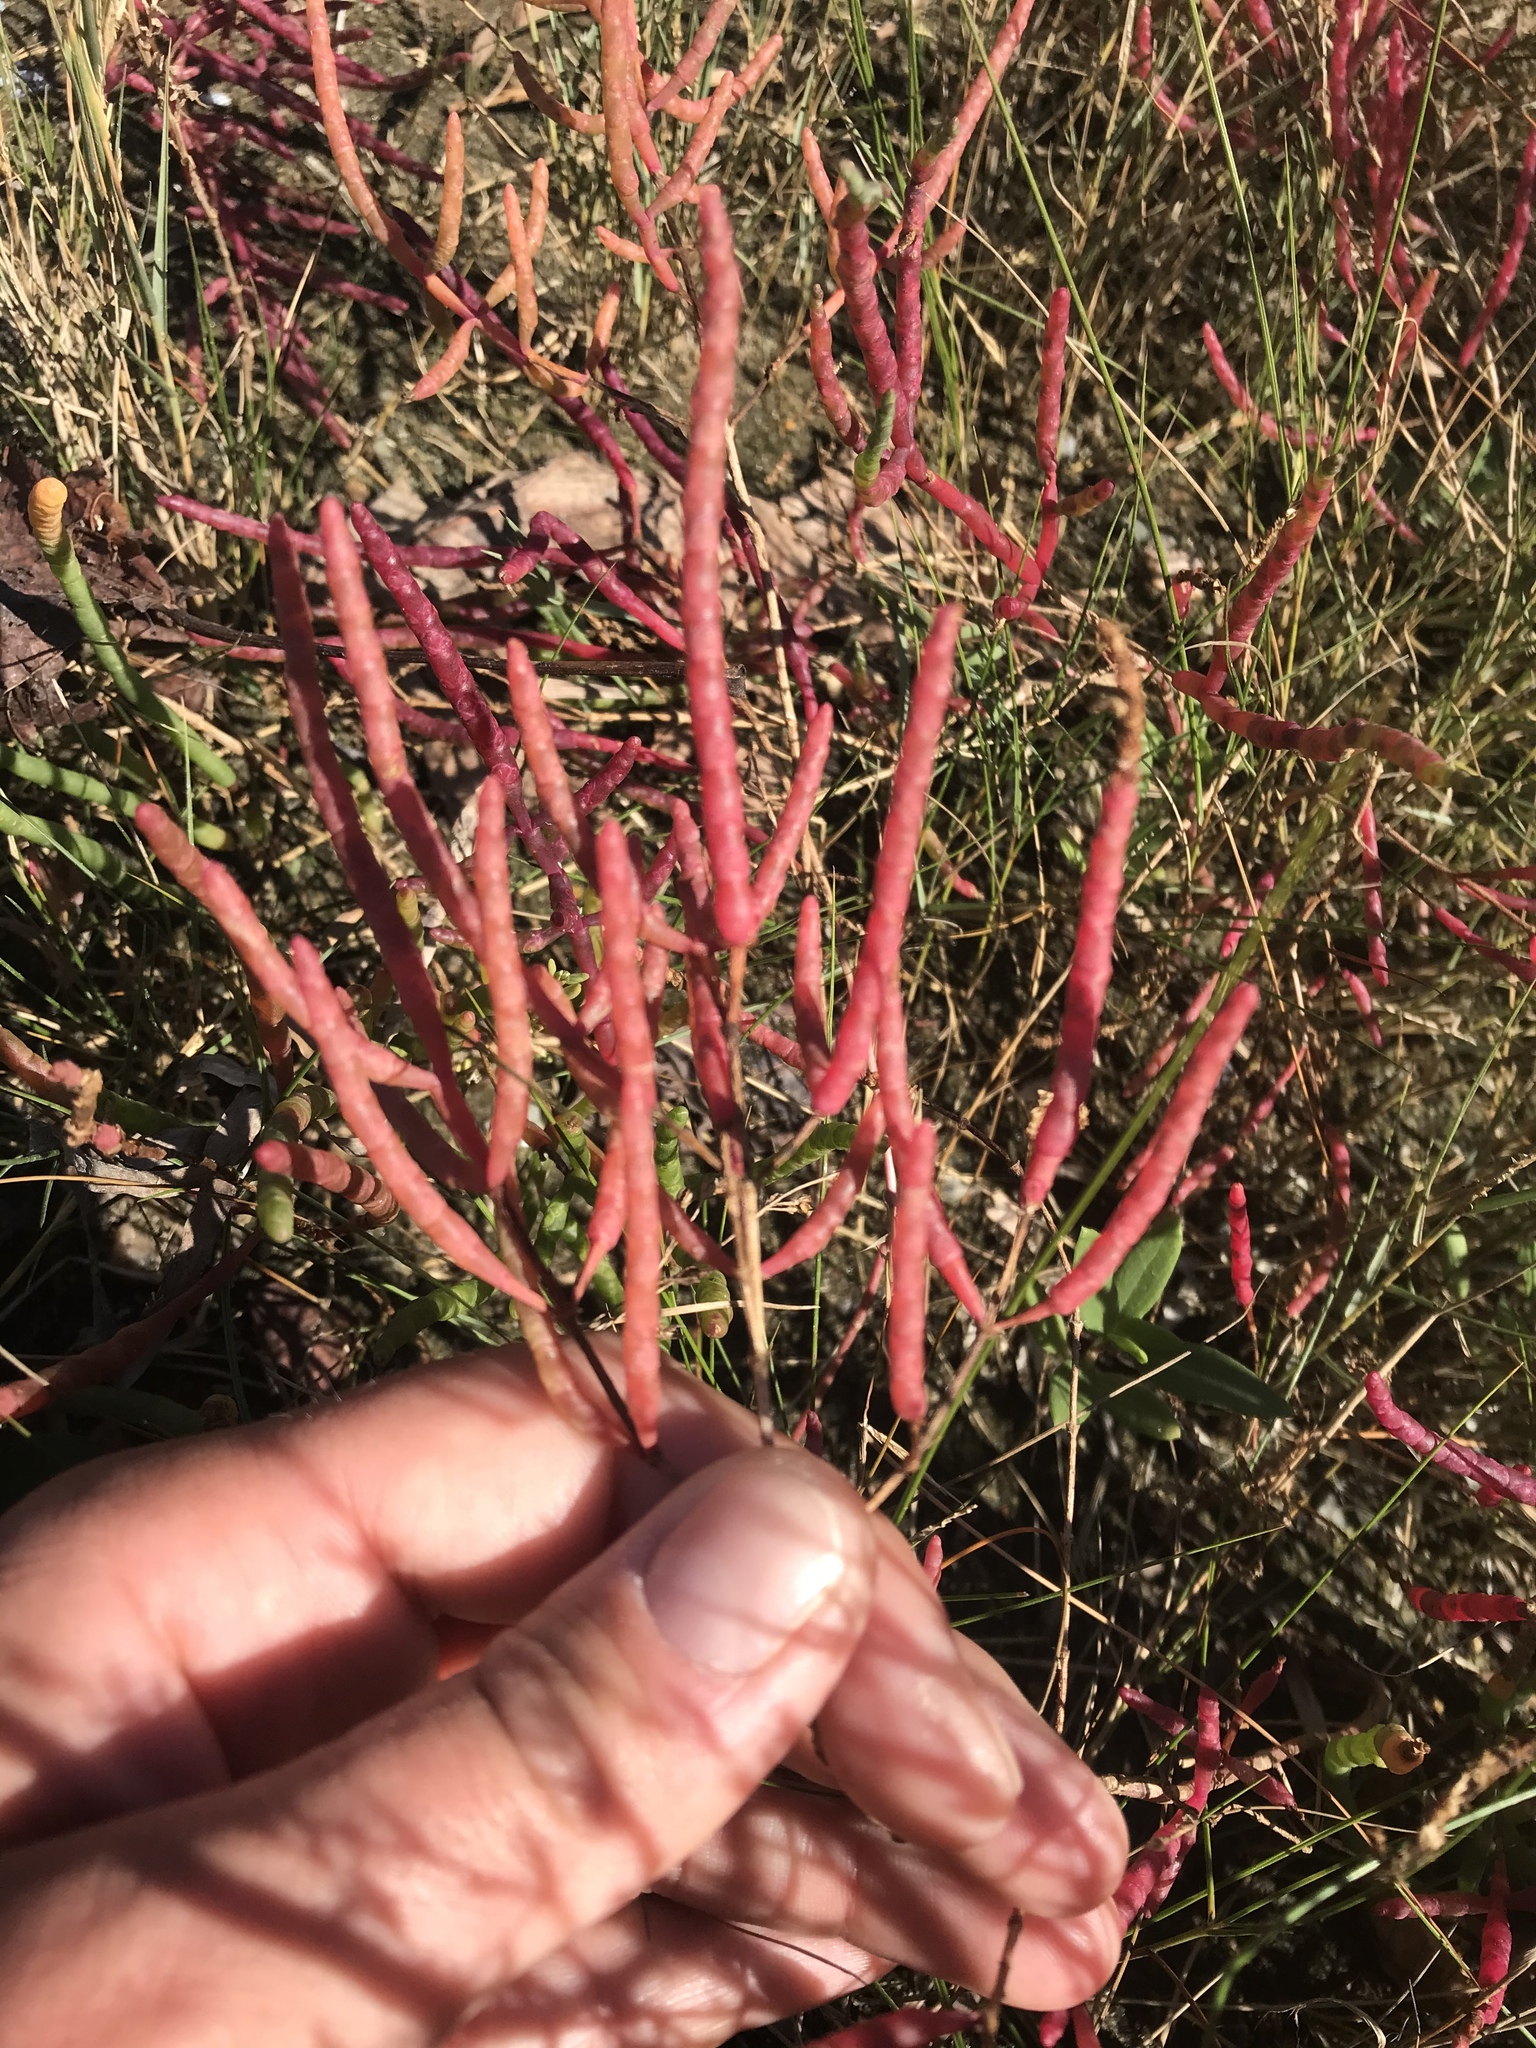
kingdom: Plantae
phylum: Tracheophyta
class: Magnoliopsida
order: Caryophyllales
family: Amaranthaceae
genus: Salicornia
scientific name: Salicornia virginica
